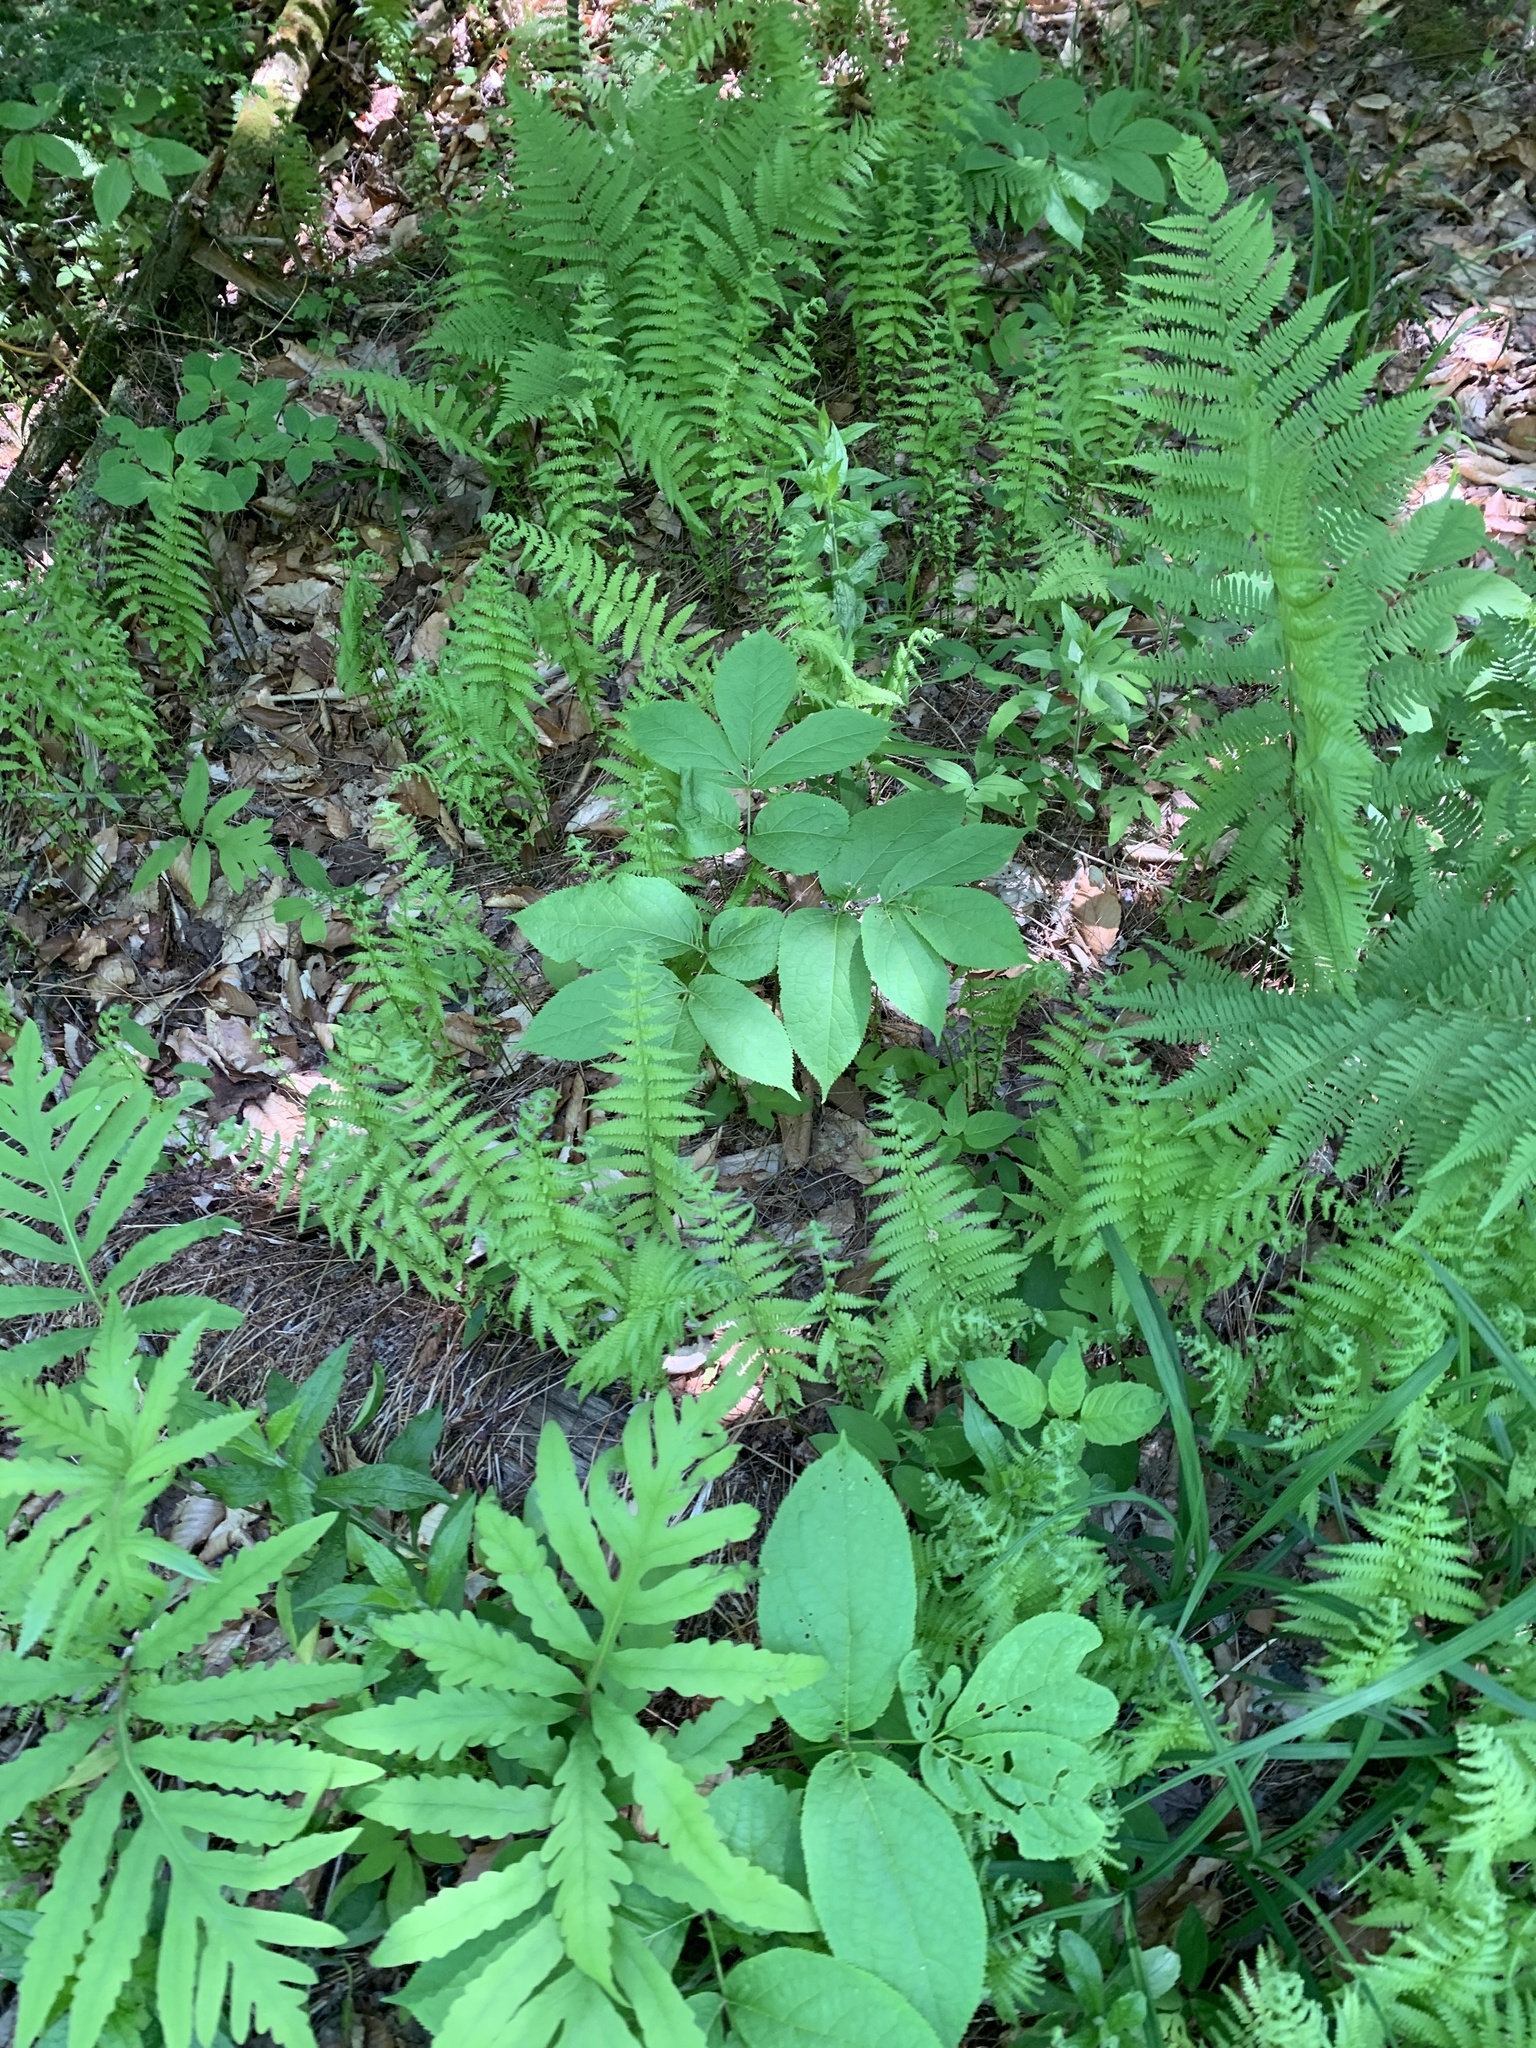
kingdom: Plantae
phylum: Tracheophyta
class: Magnoliopsida
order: Apiales
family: Araliaceae
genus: Aralia
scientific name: Aralia nudicaulis
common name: Wild sarsaparilla
